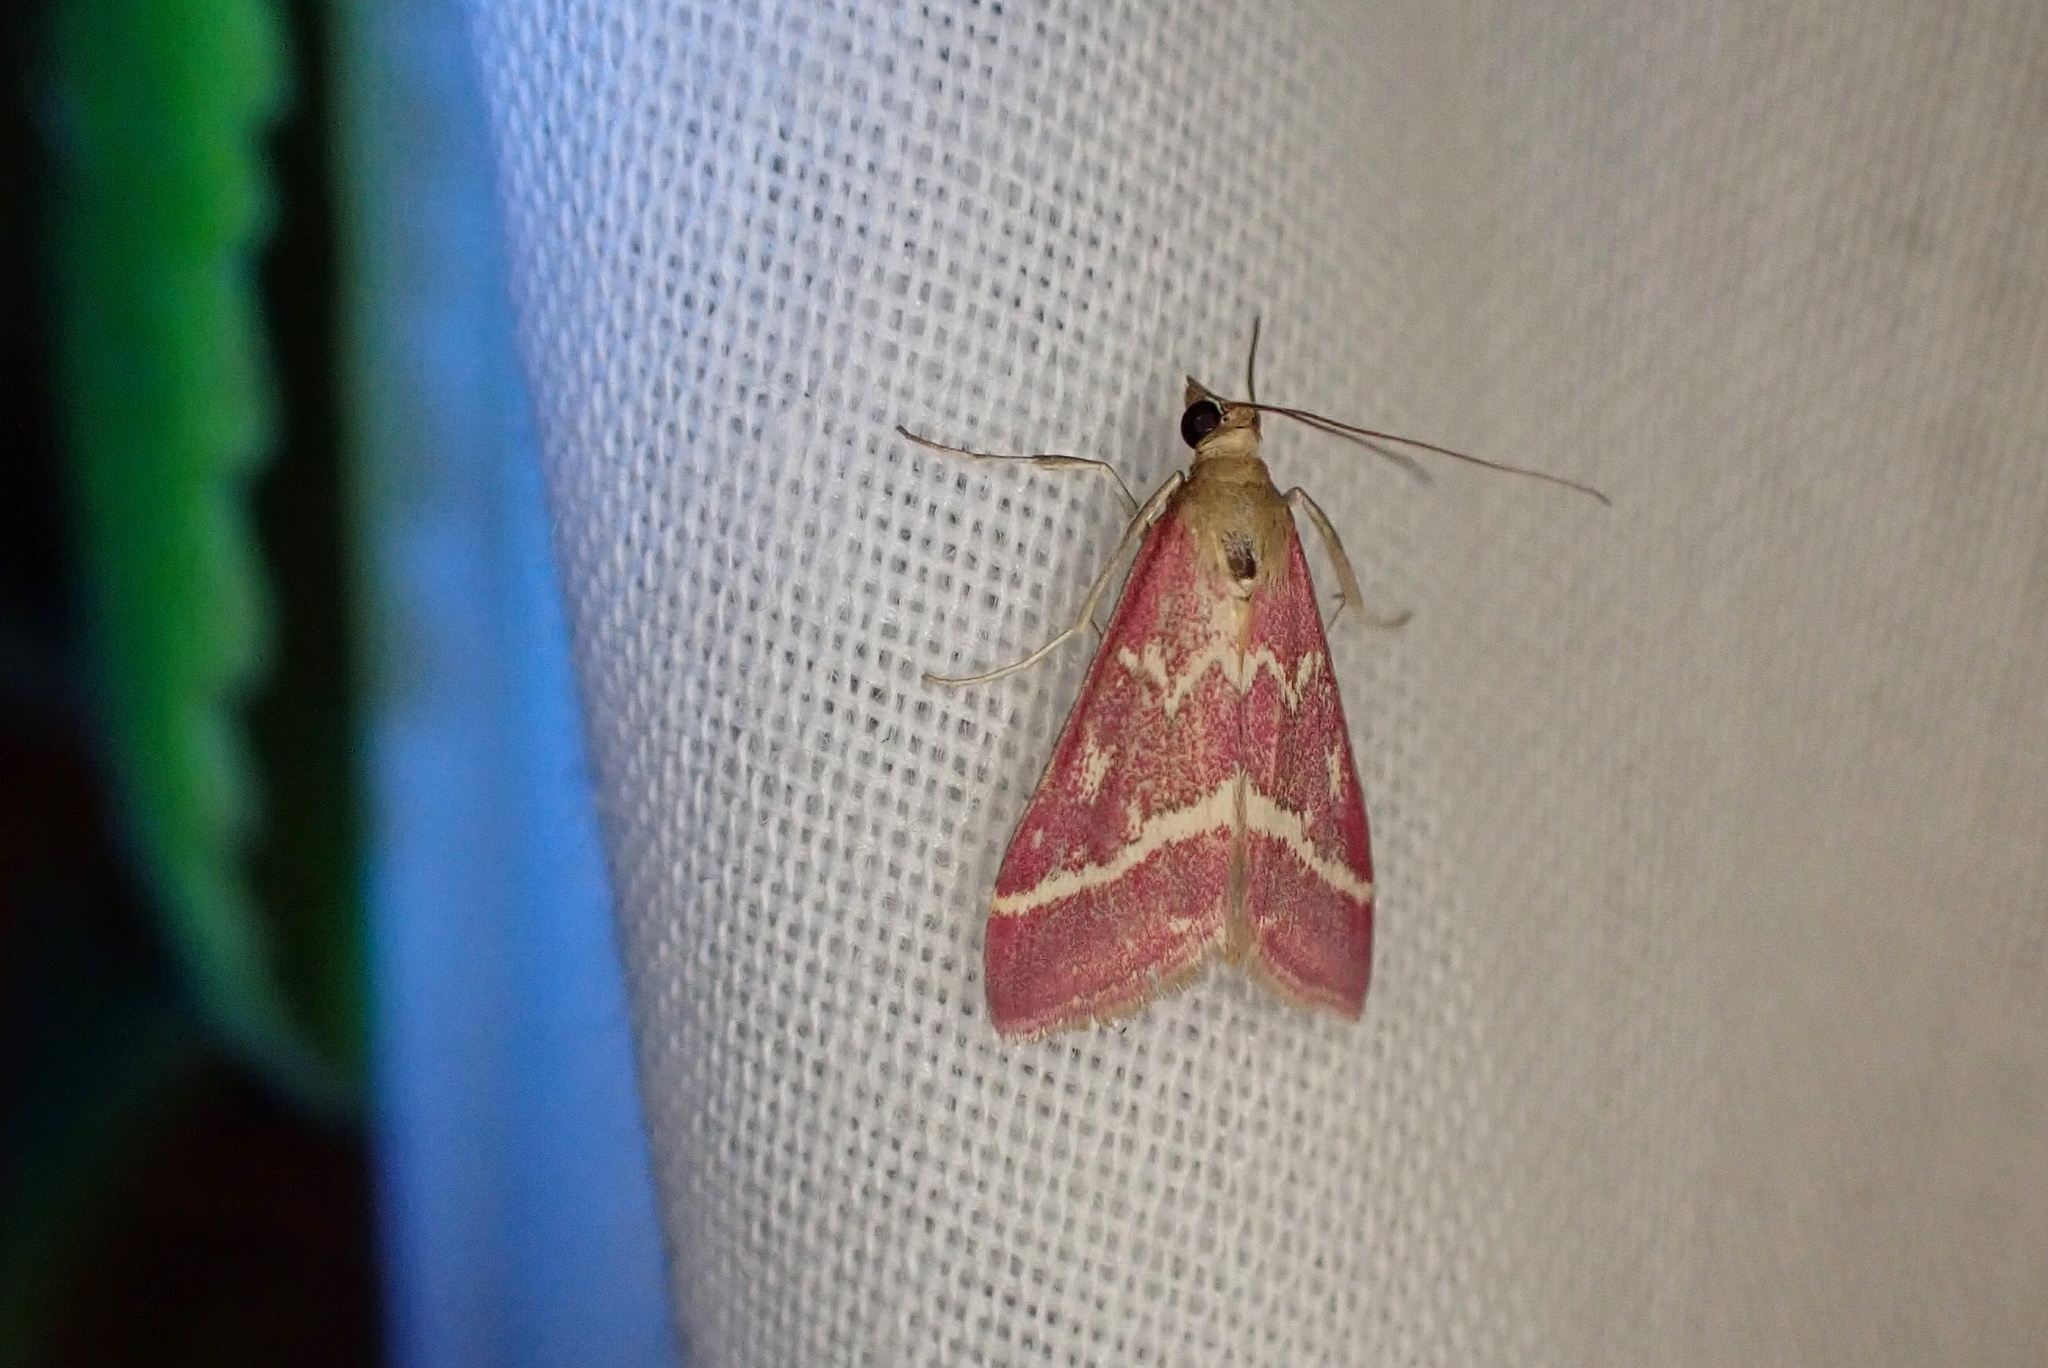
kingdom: Animalia
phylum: Arthropoda
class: Insecta
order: Lepidoptera
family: Crambidae
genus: Pyrausta
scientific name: Pyrausta volupialis
